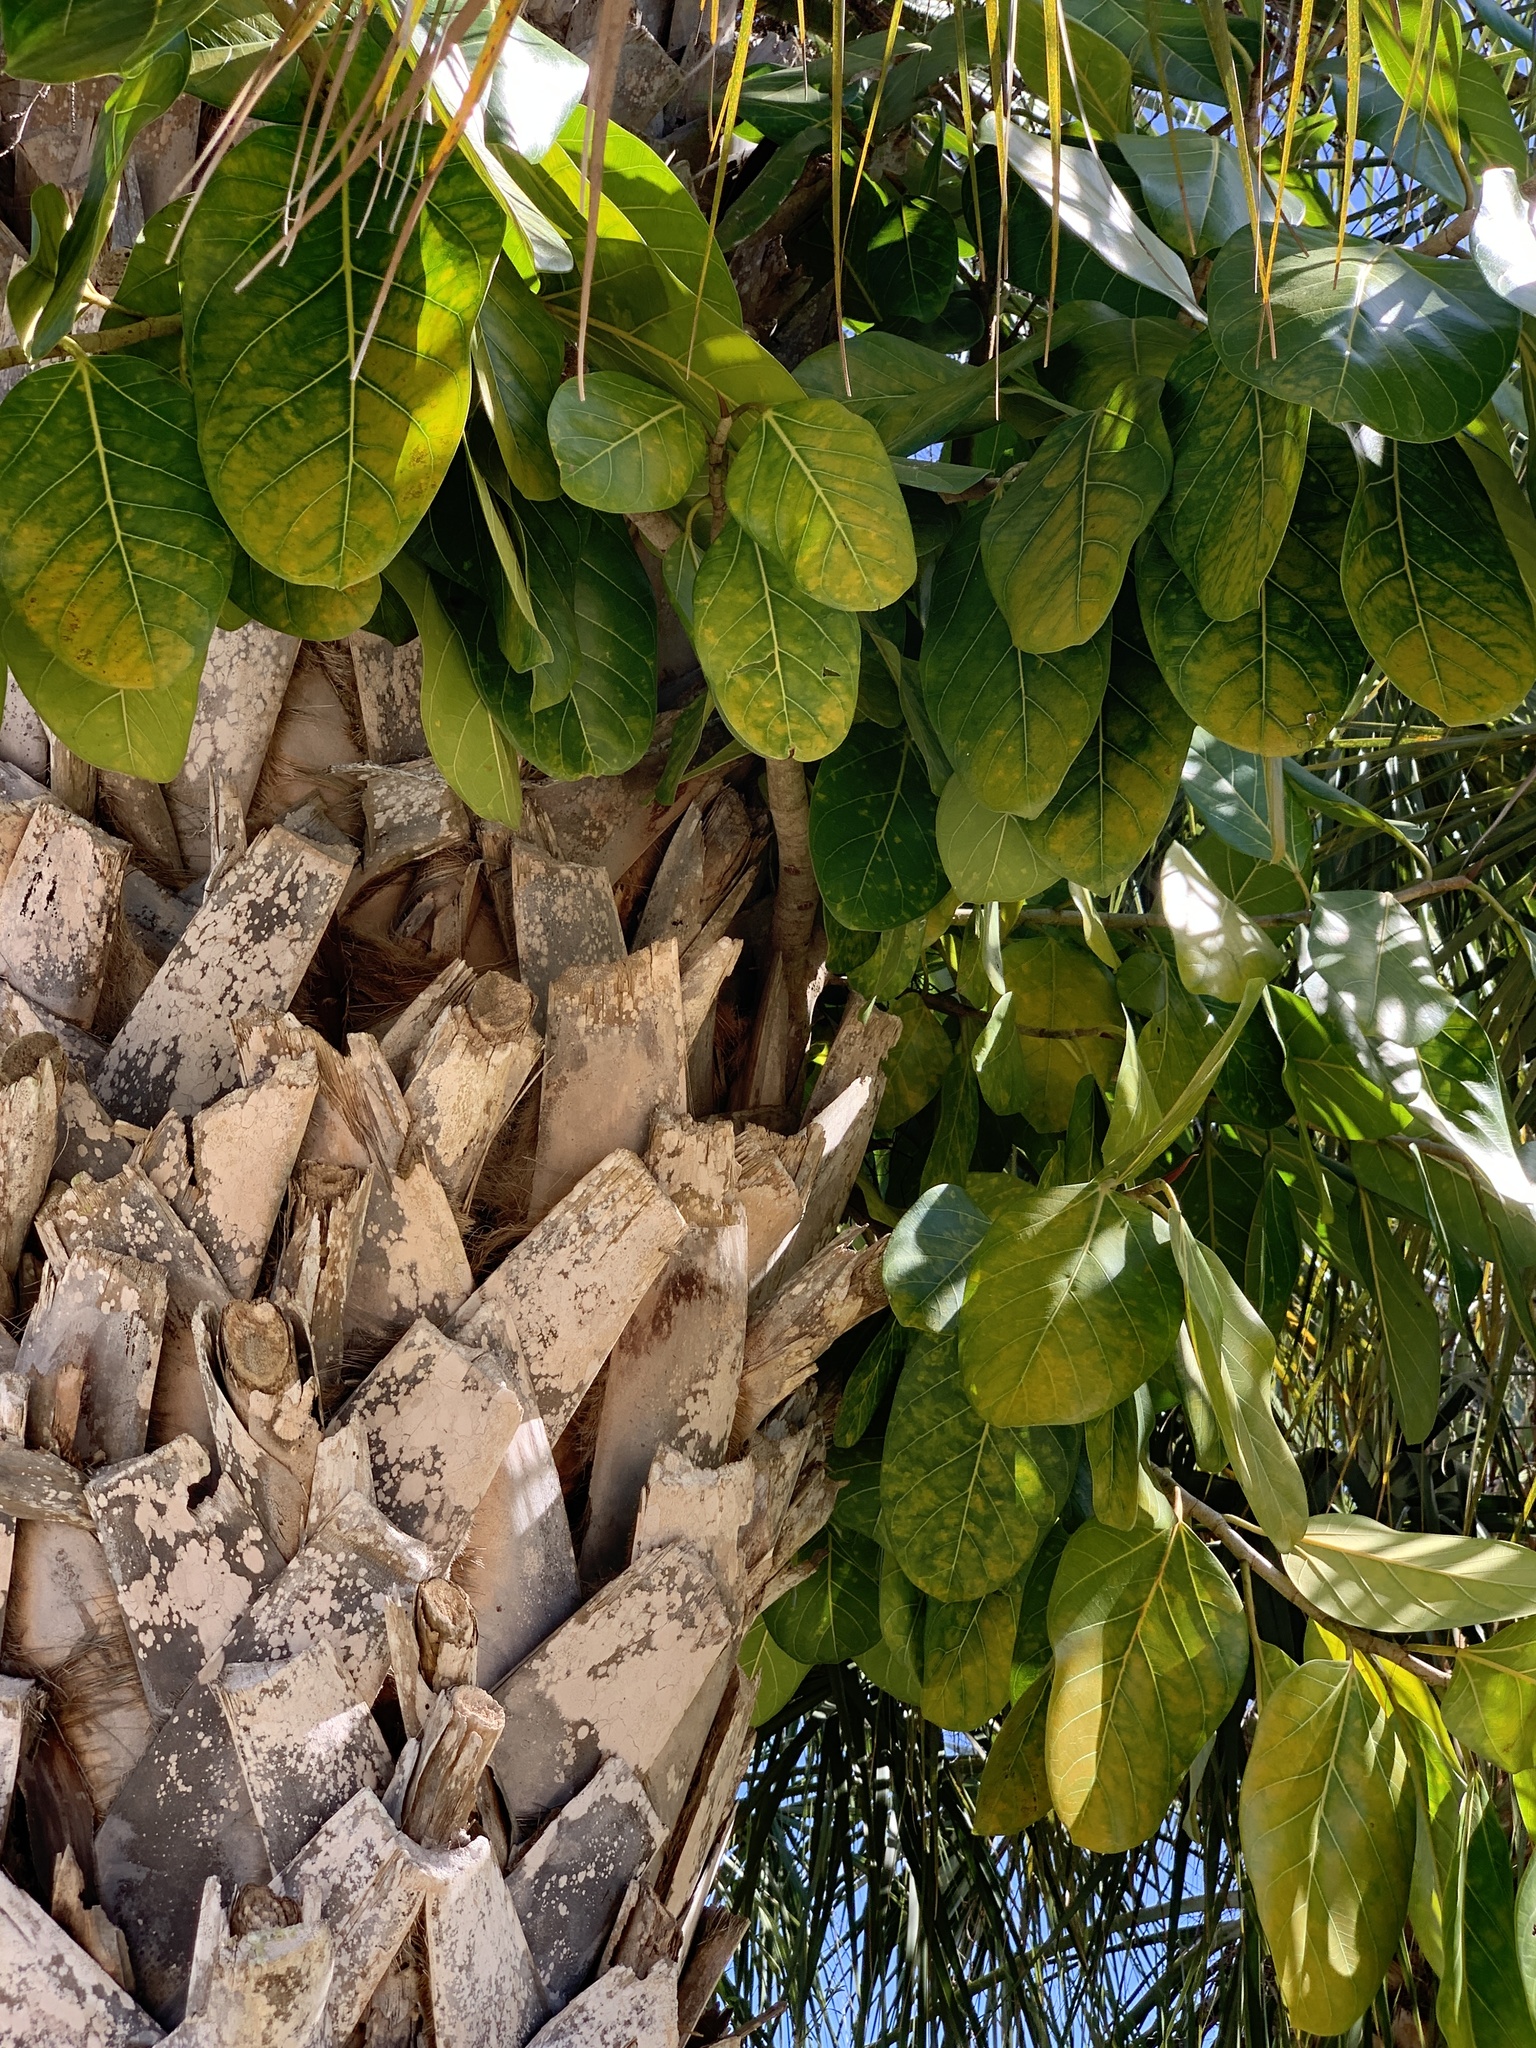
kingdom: Plantae
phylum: Tracheophyta
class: Magnoliopsida
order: Rosales
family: Moraceae
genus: Ficus
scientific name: Ficus altissima
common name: Council tree
